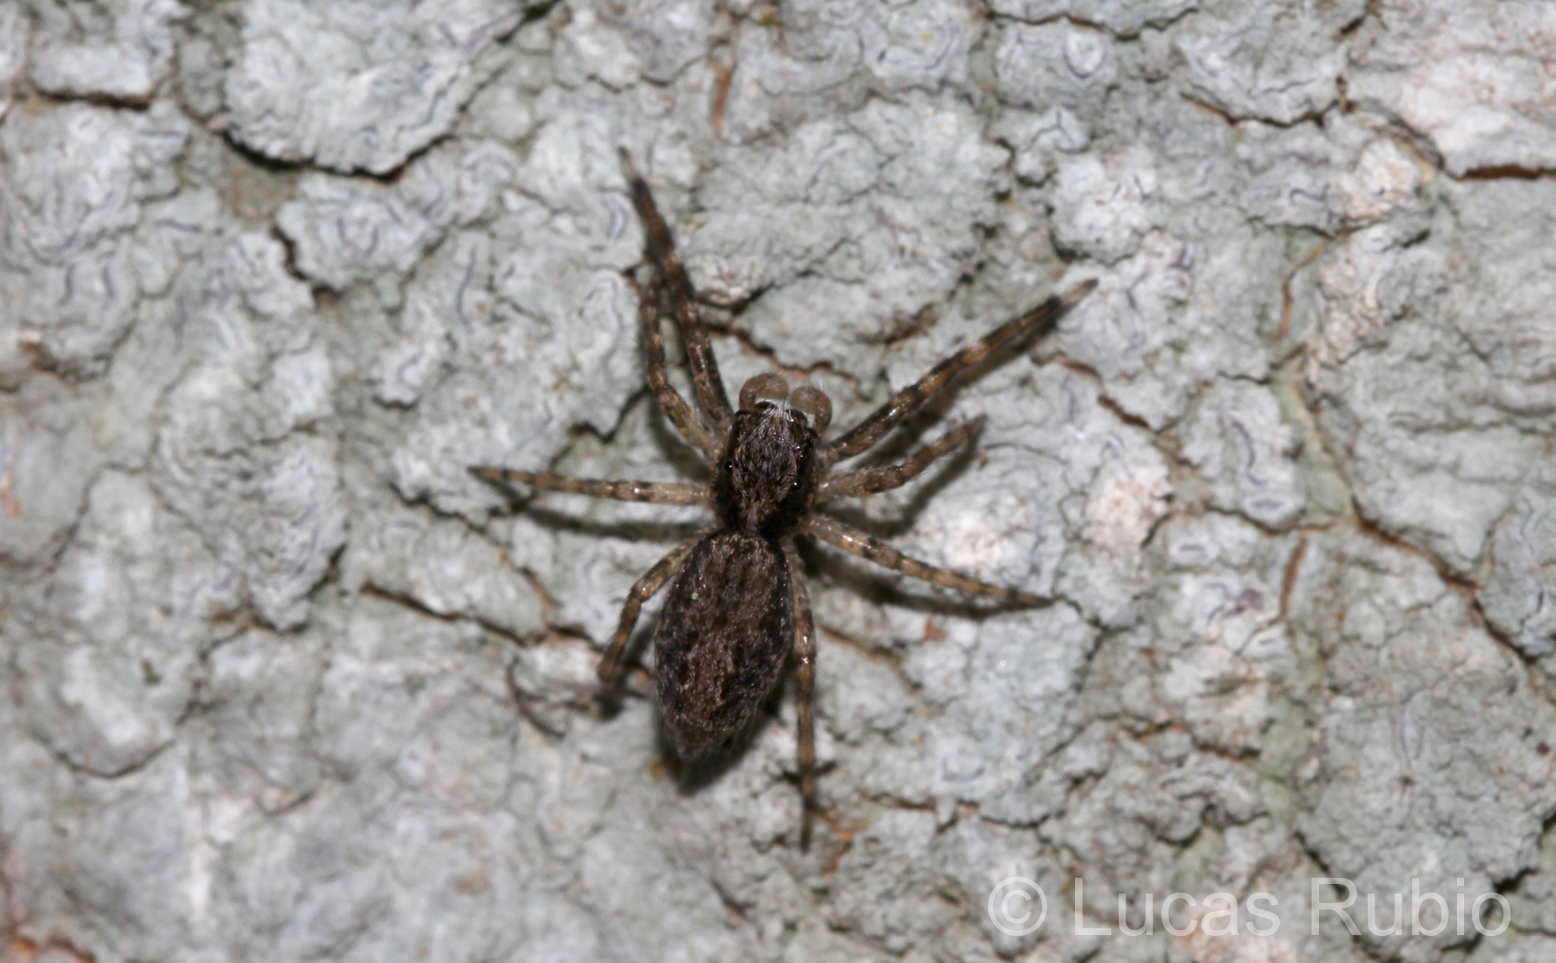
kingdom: Animalia
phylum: Arthropoda
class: Arachnida
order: Araneae
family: Salticidae
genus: Titanattus
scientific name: Titanattus andinus
